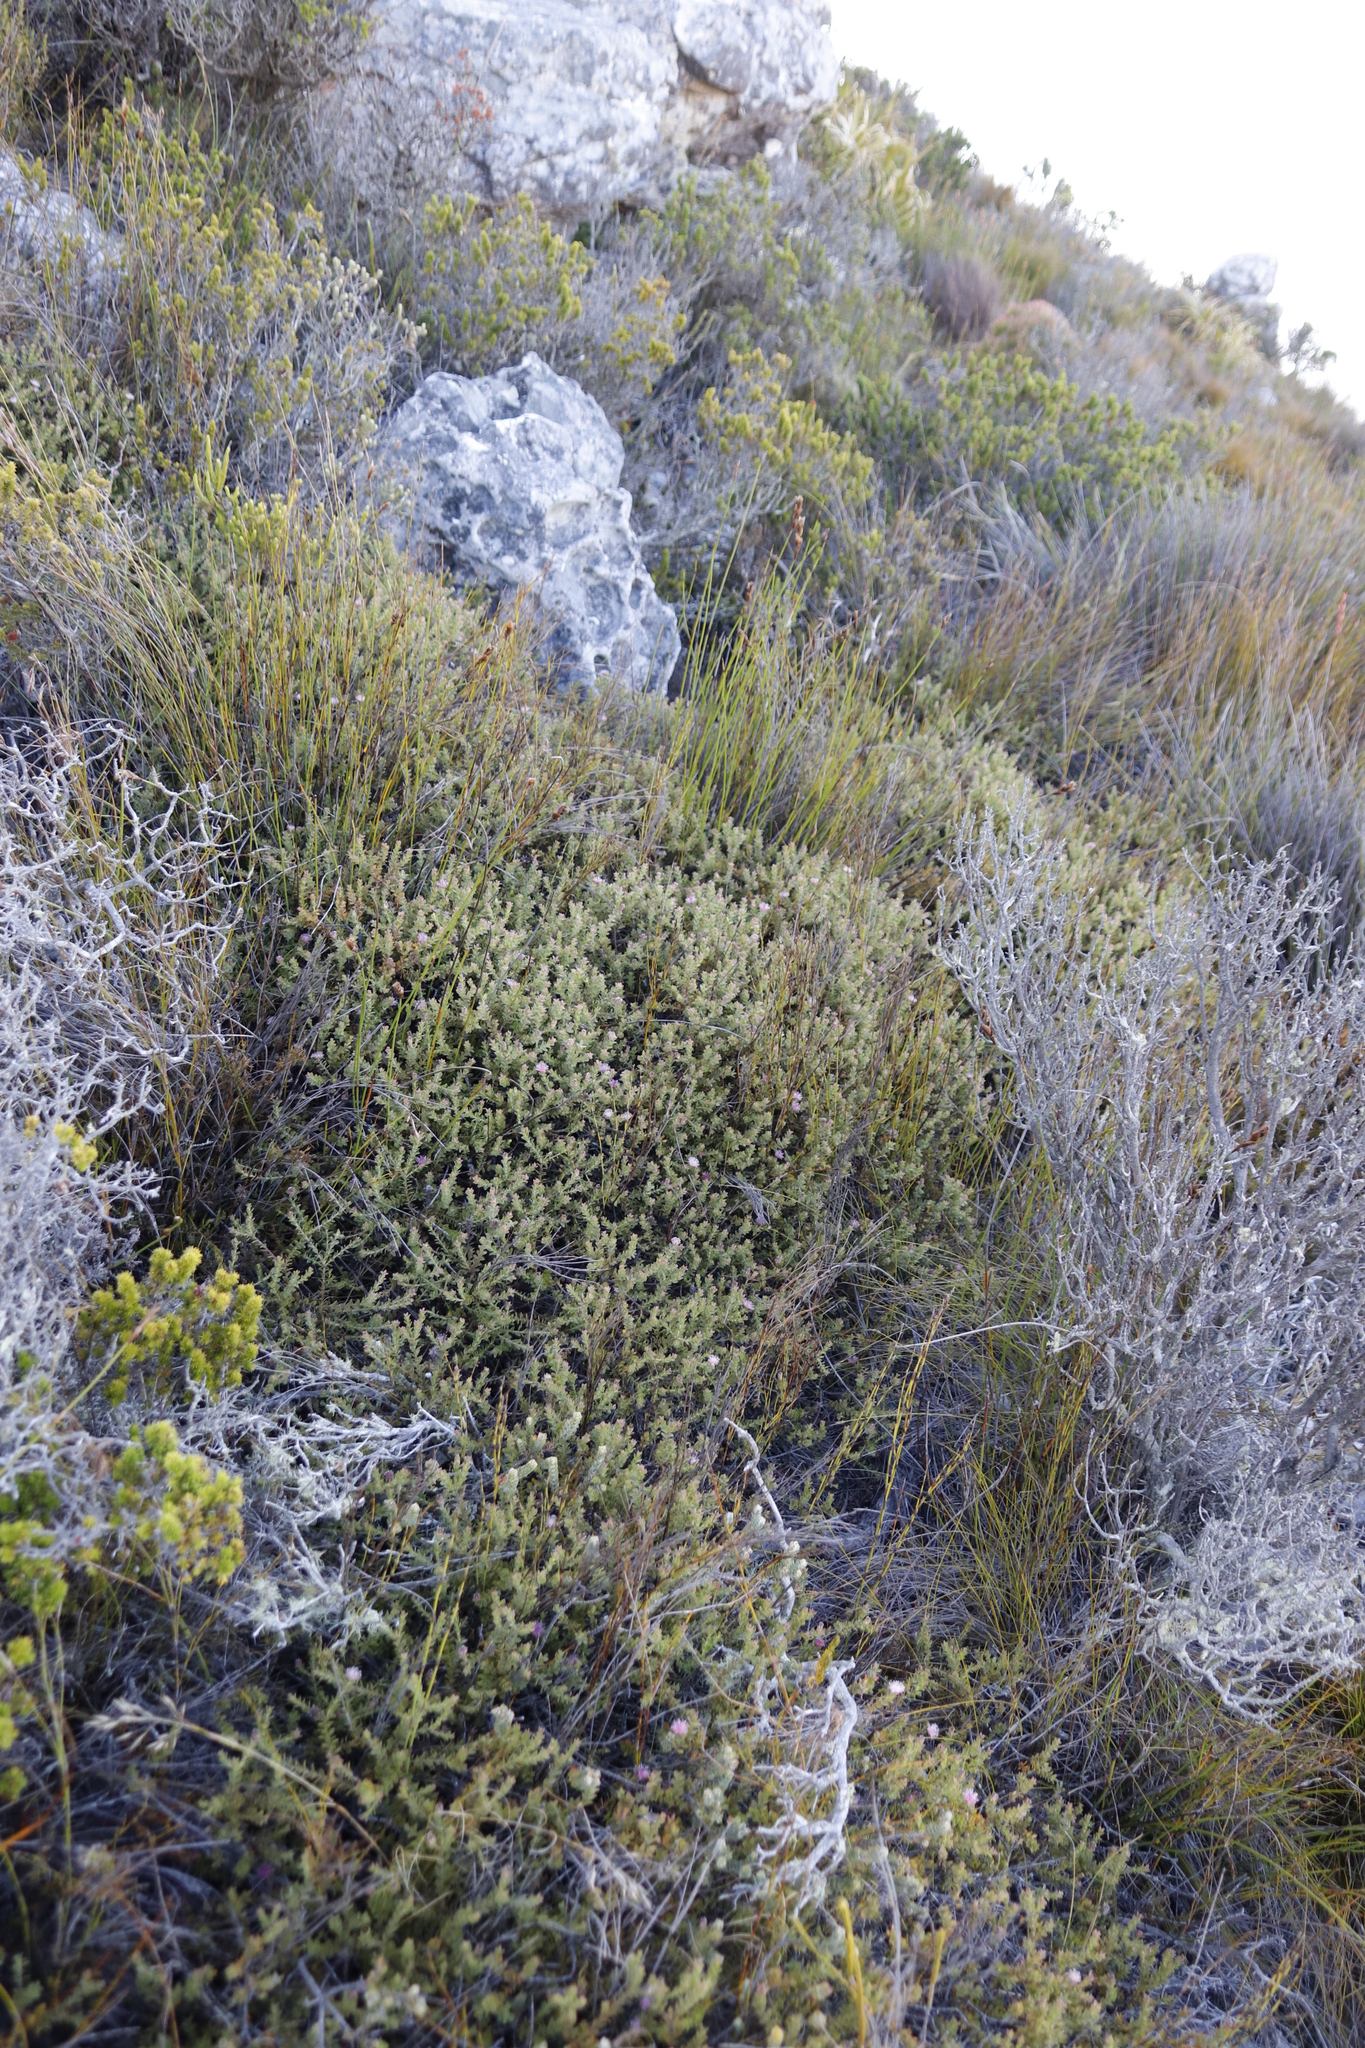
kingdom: Plantae
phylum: Tracheophyta
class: Magnoliopsida
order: Proteales
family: Proteaceae
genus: Diastella
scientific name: Diastella divaricata
